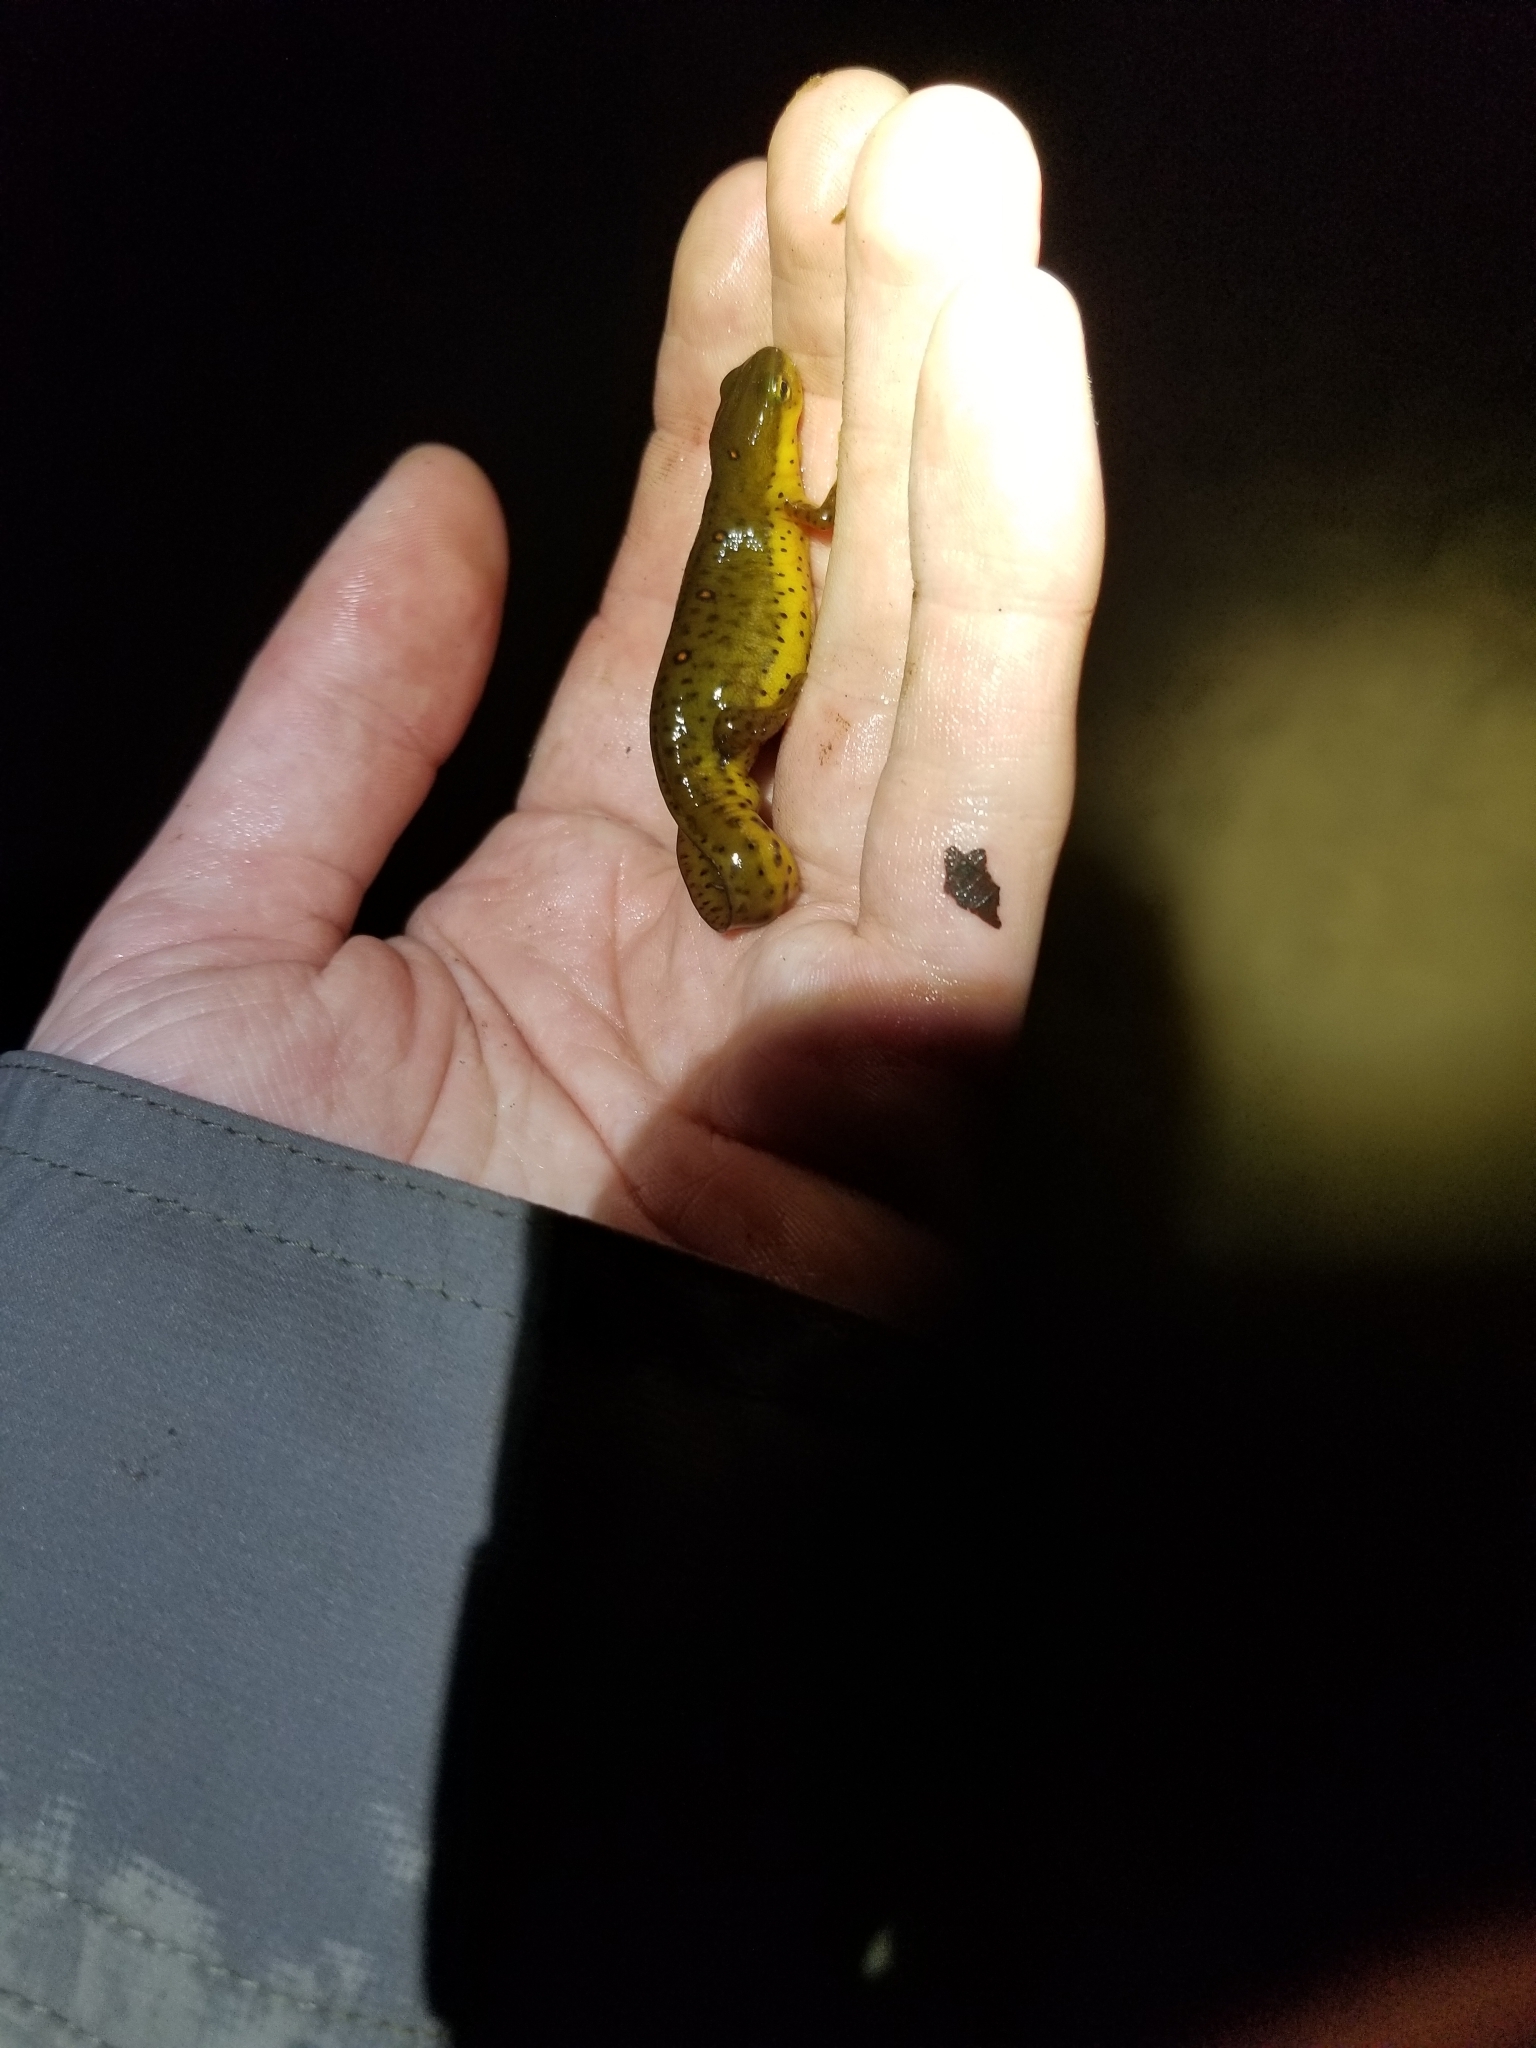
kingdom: Animalia
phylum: Chordata
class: Amphibia
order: Caudata
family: Salamandridae
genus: Notophthalmus
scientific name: Notophthalmus viridescens
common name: Eastern newt
